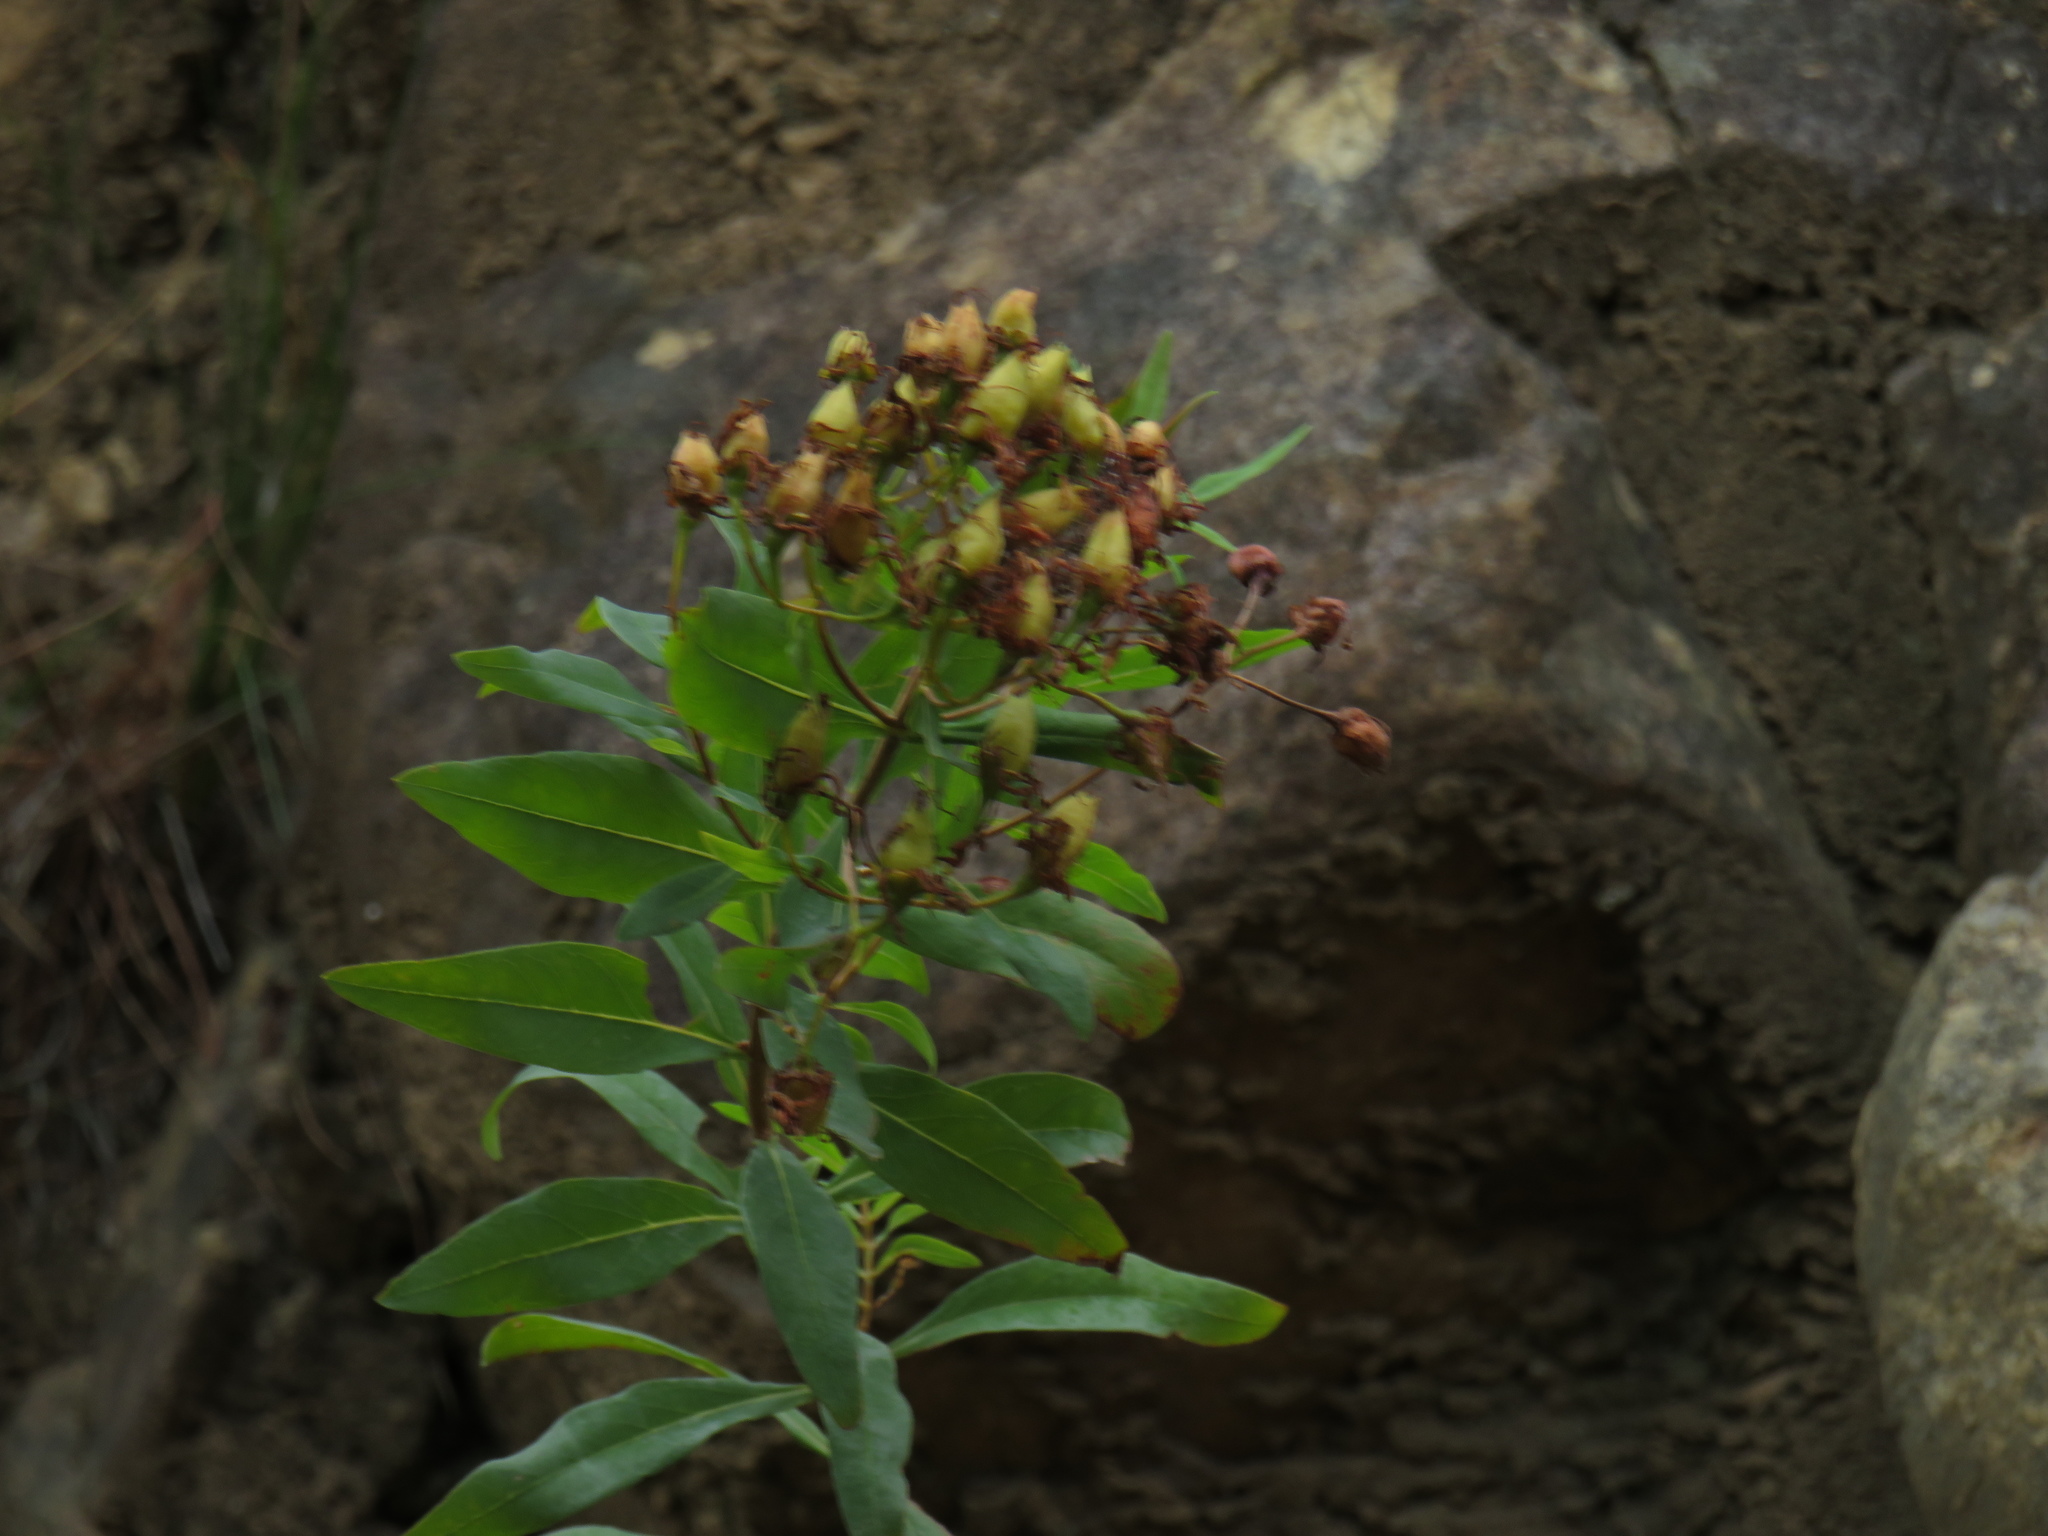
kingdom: Plantae
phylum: Tracheophyta
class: Magnoliopsida
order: Malpighiales
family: Hypericaceae
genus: Hypericum
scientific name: Hypericum canariense
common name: Canary island st. johnswort
